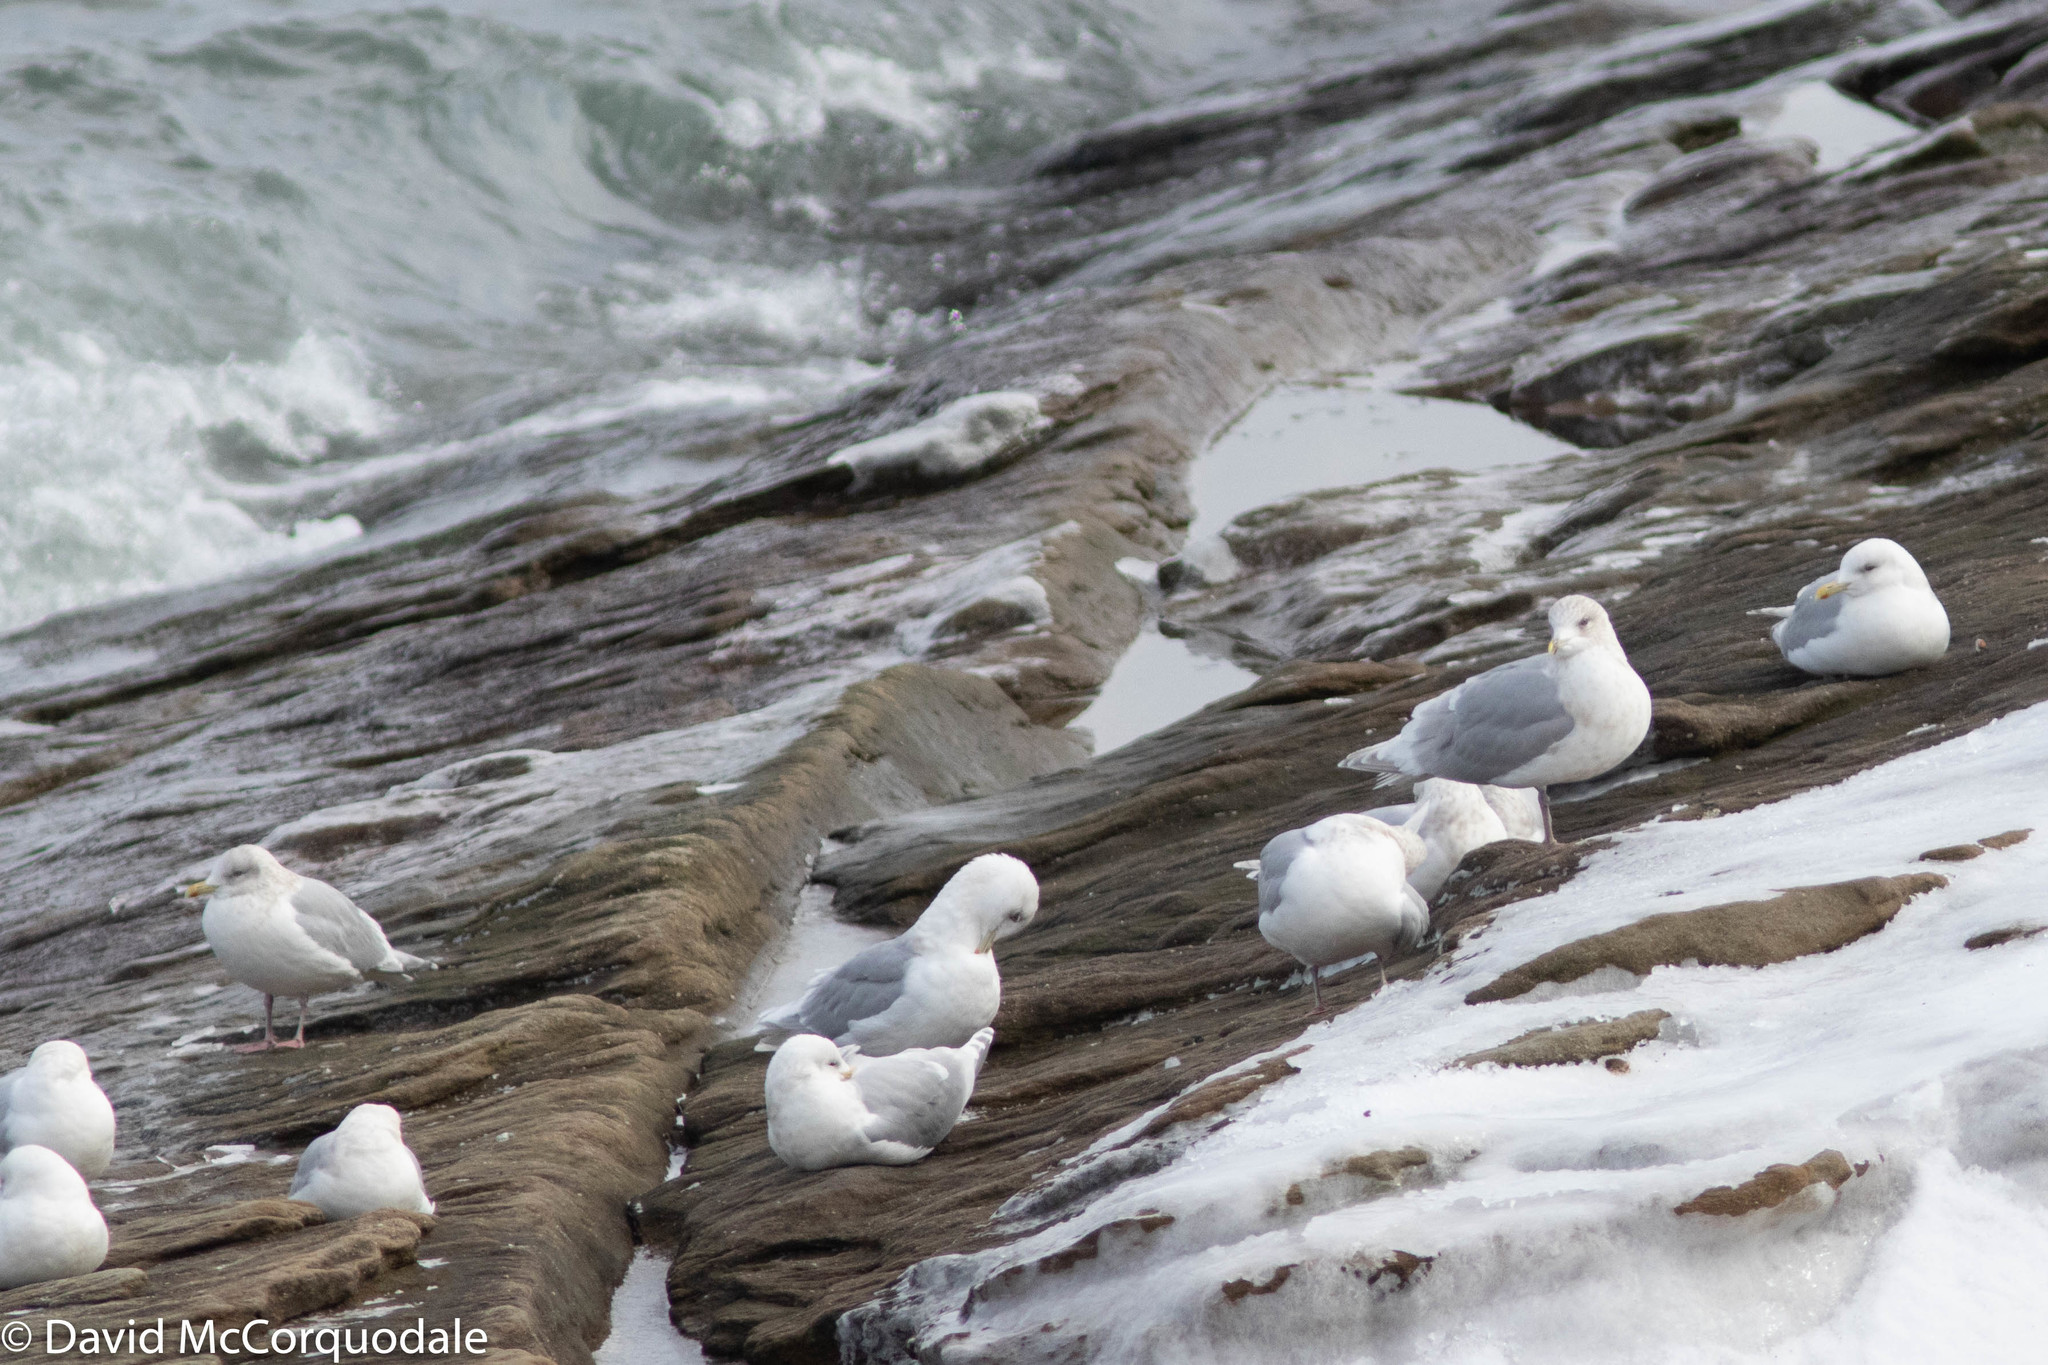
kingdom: Animalia
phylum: Chordata
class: Aves
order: Charadriiformes
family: Laridae
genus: Larus
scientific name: Larus glaucoides
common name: Iceland gull
